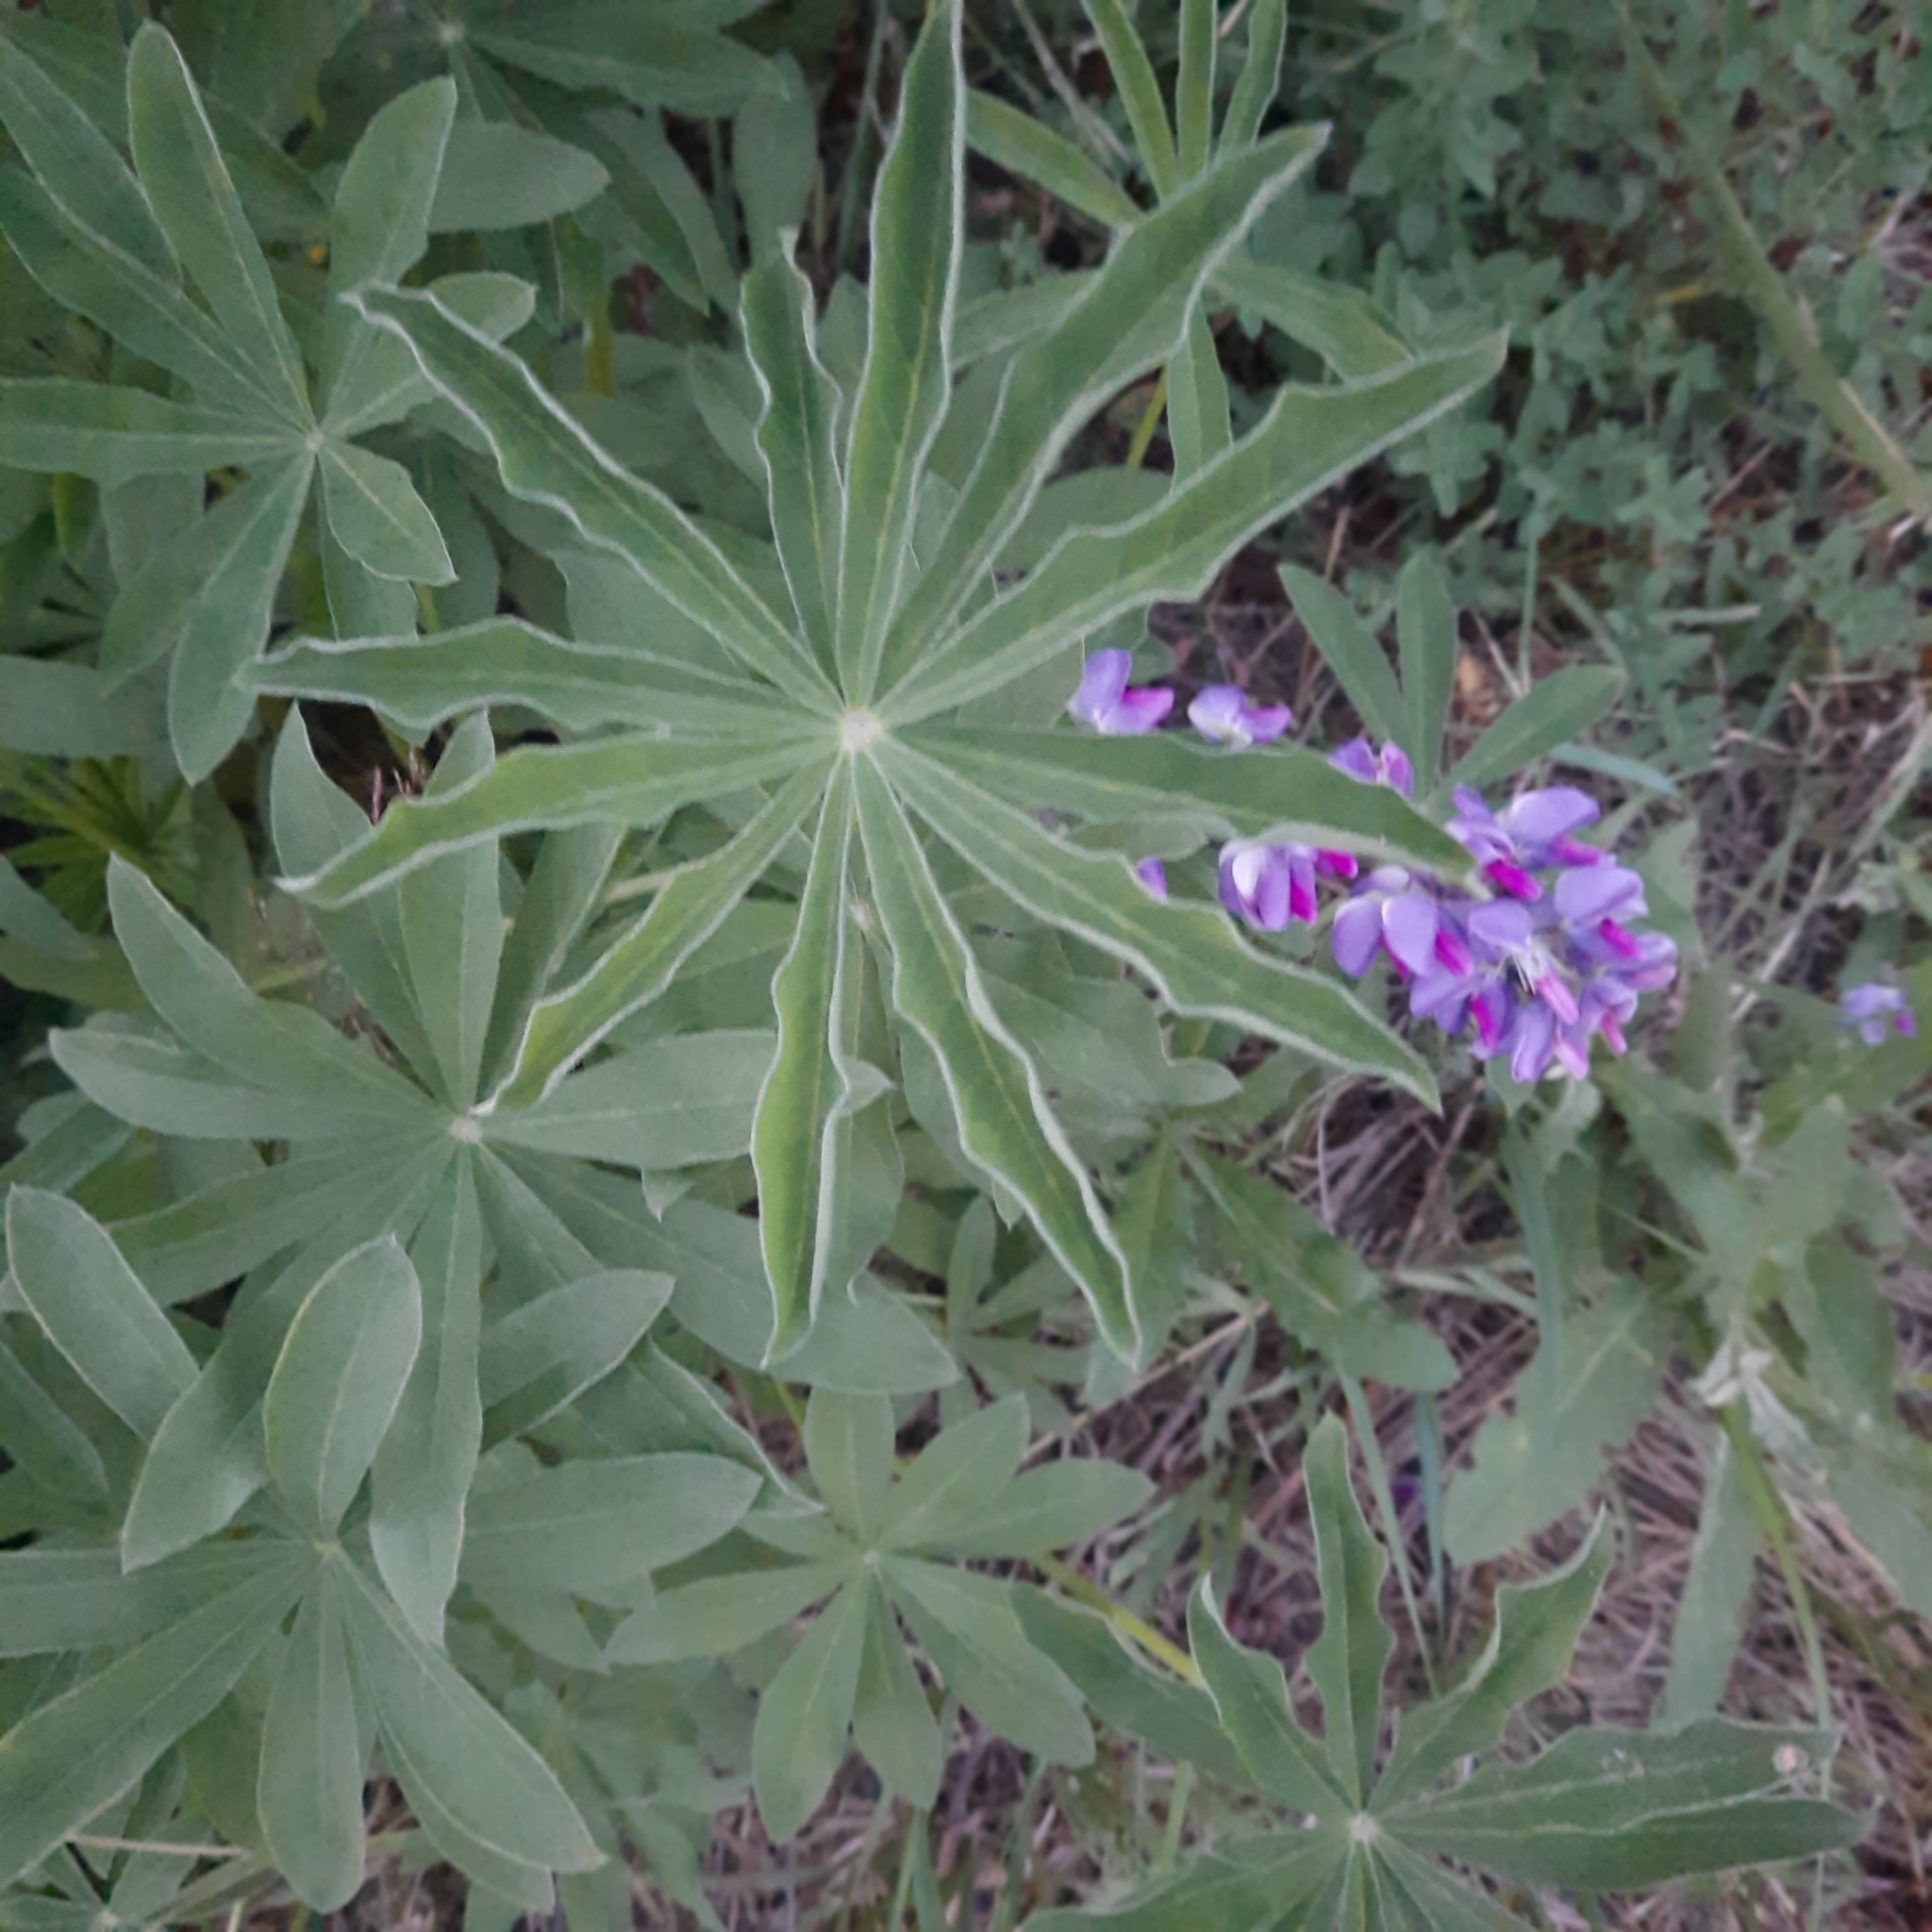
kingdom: Plantae
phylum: Tracheophyta
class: Magnoliopsida
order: Fabales
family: Fabaceae
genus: Lupinus
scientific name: Lupinus polyphyllus
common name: Garden lupin
